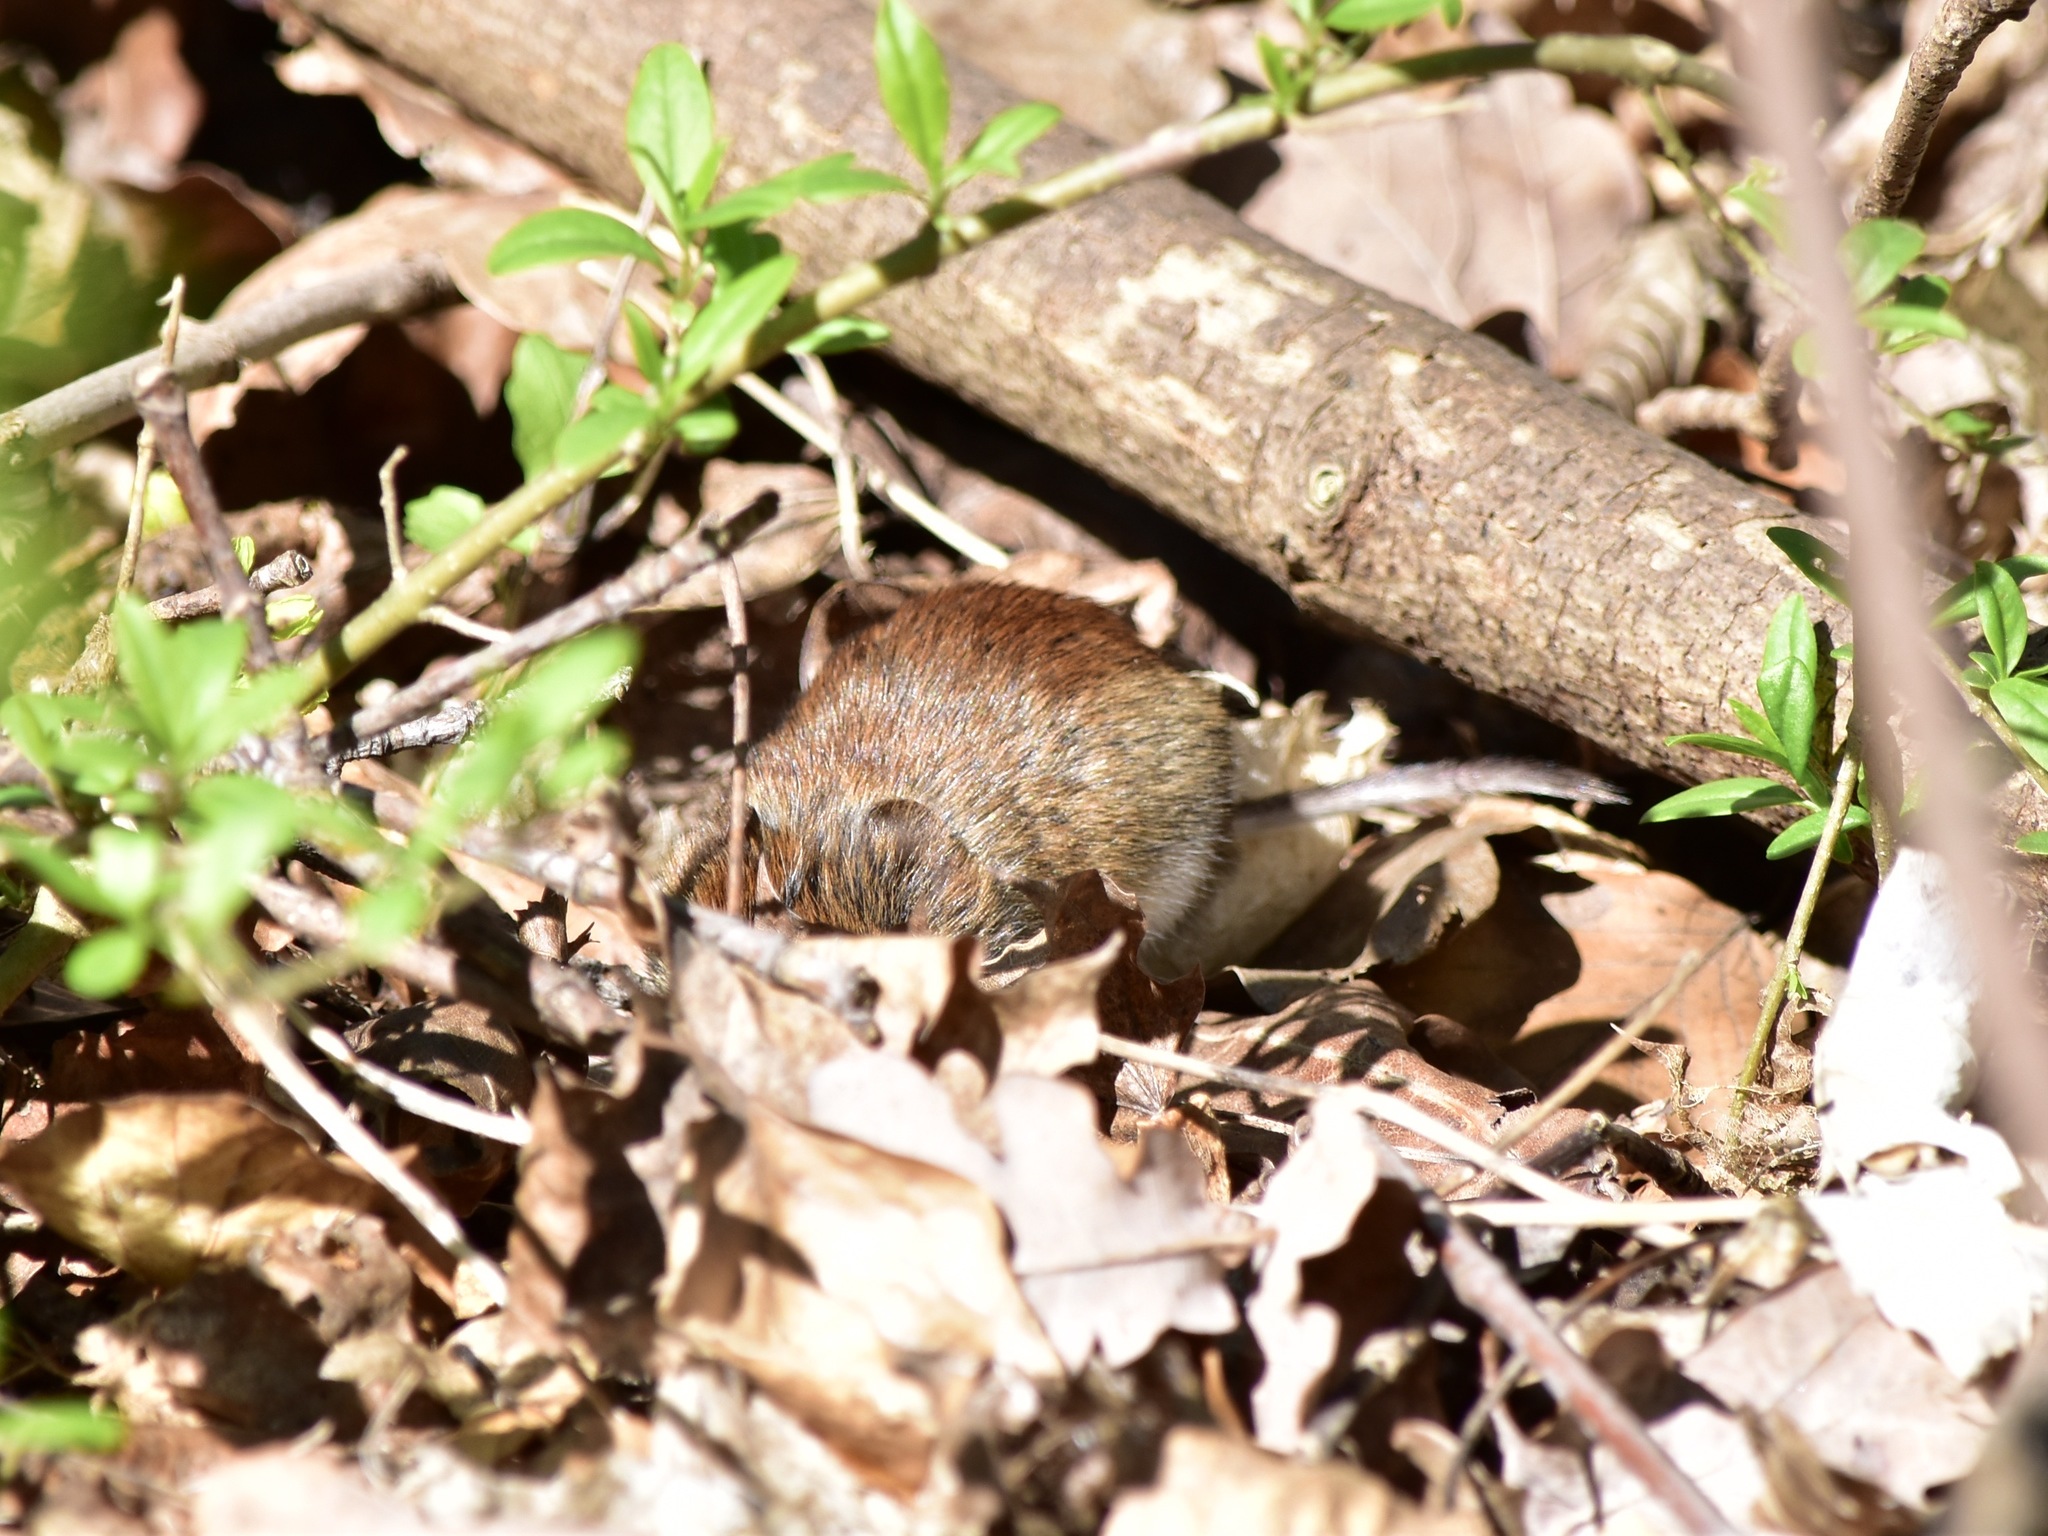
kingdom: Animalia
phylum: Chordata
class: Mammalia
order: Rodentia
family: Cricetidae
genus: Myodes
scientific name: Myodes glareolus
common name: Bank vole
